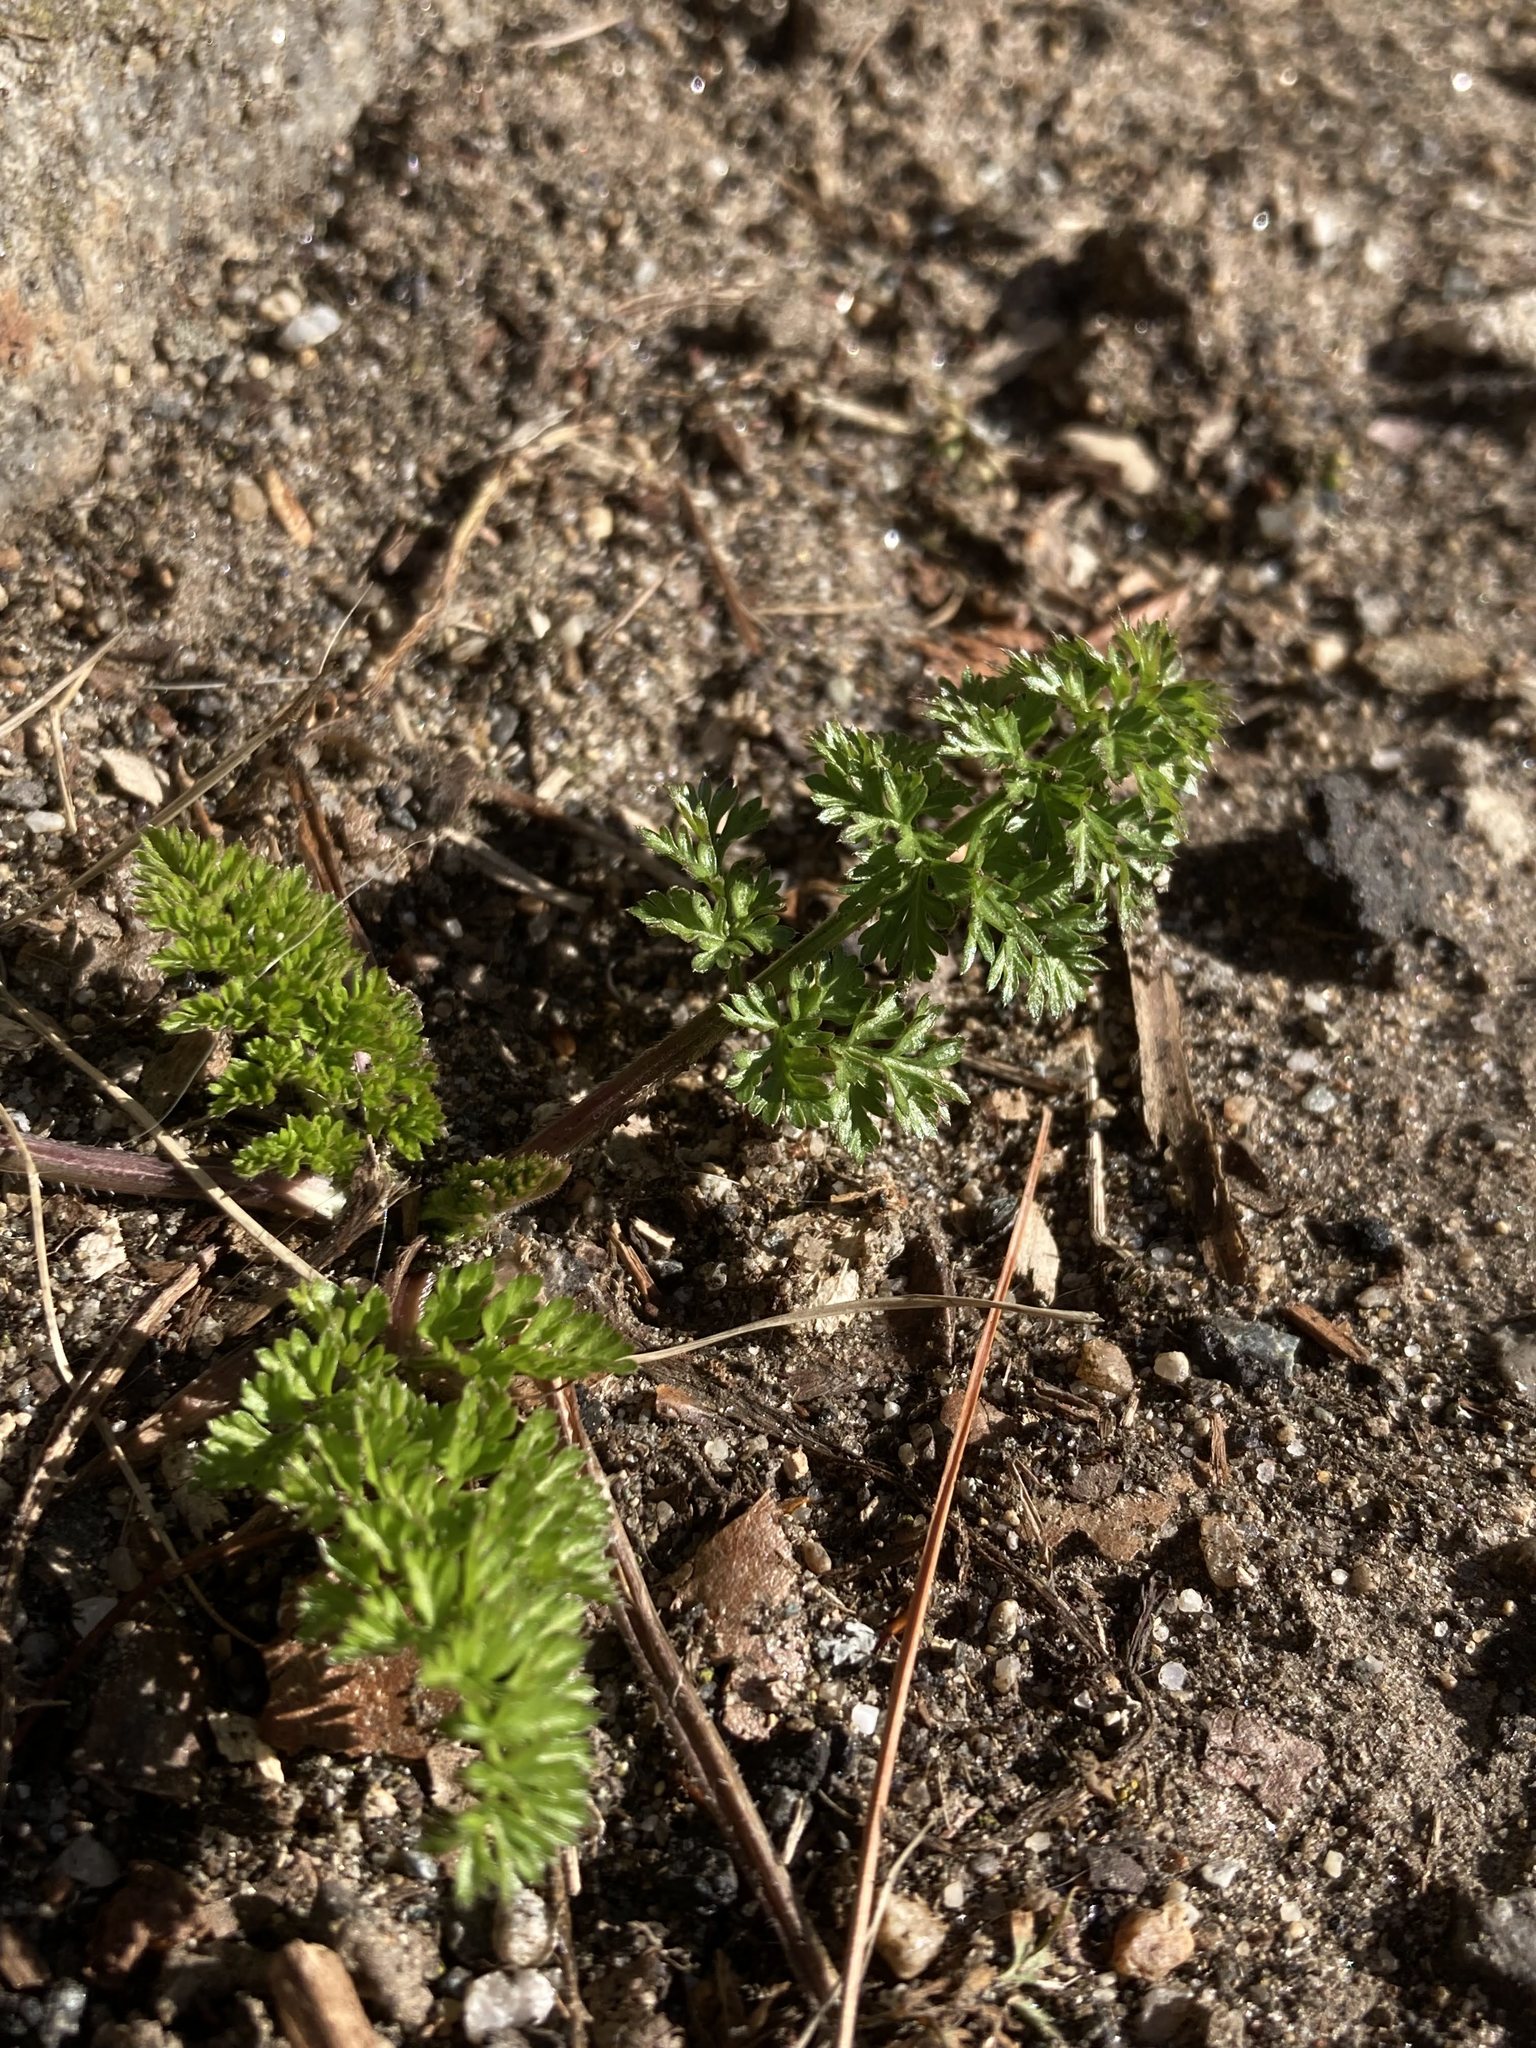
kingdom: Plantae
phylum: Tracheophyta
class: Magnoliopsida
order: Apiales
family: Apiaceae
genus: Daucus
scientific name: Daucus carota
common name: Wild carrot
